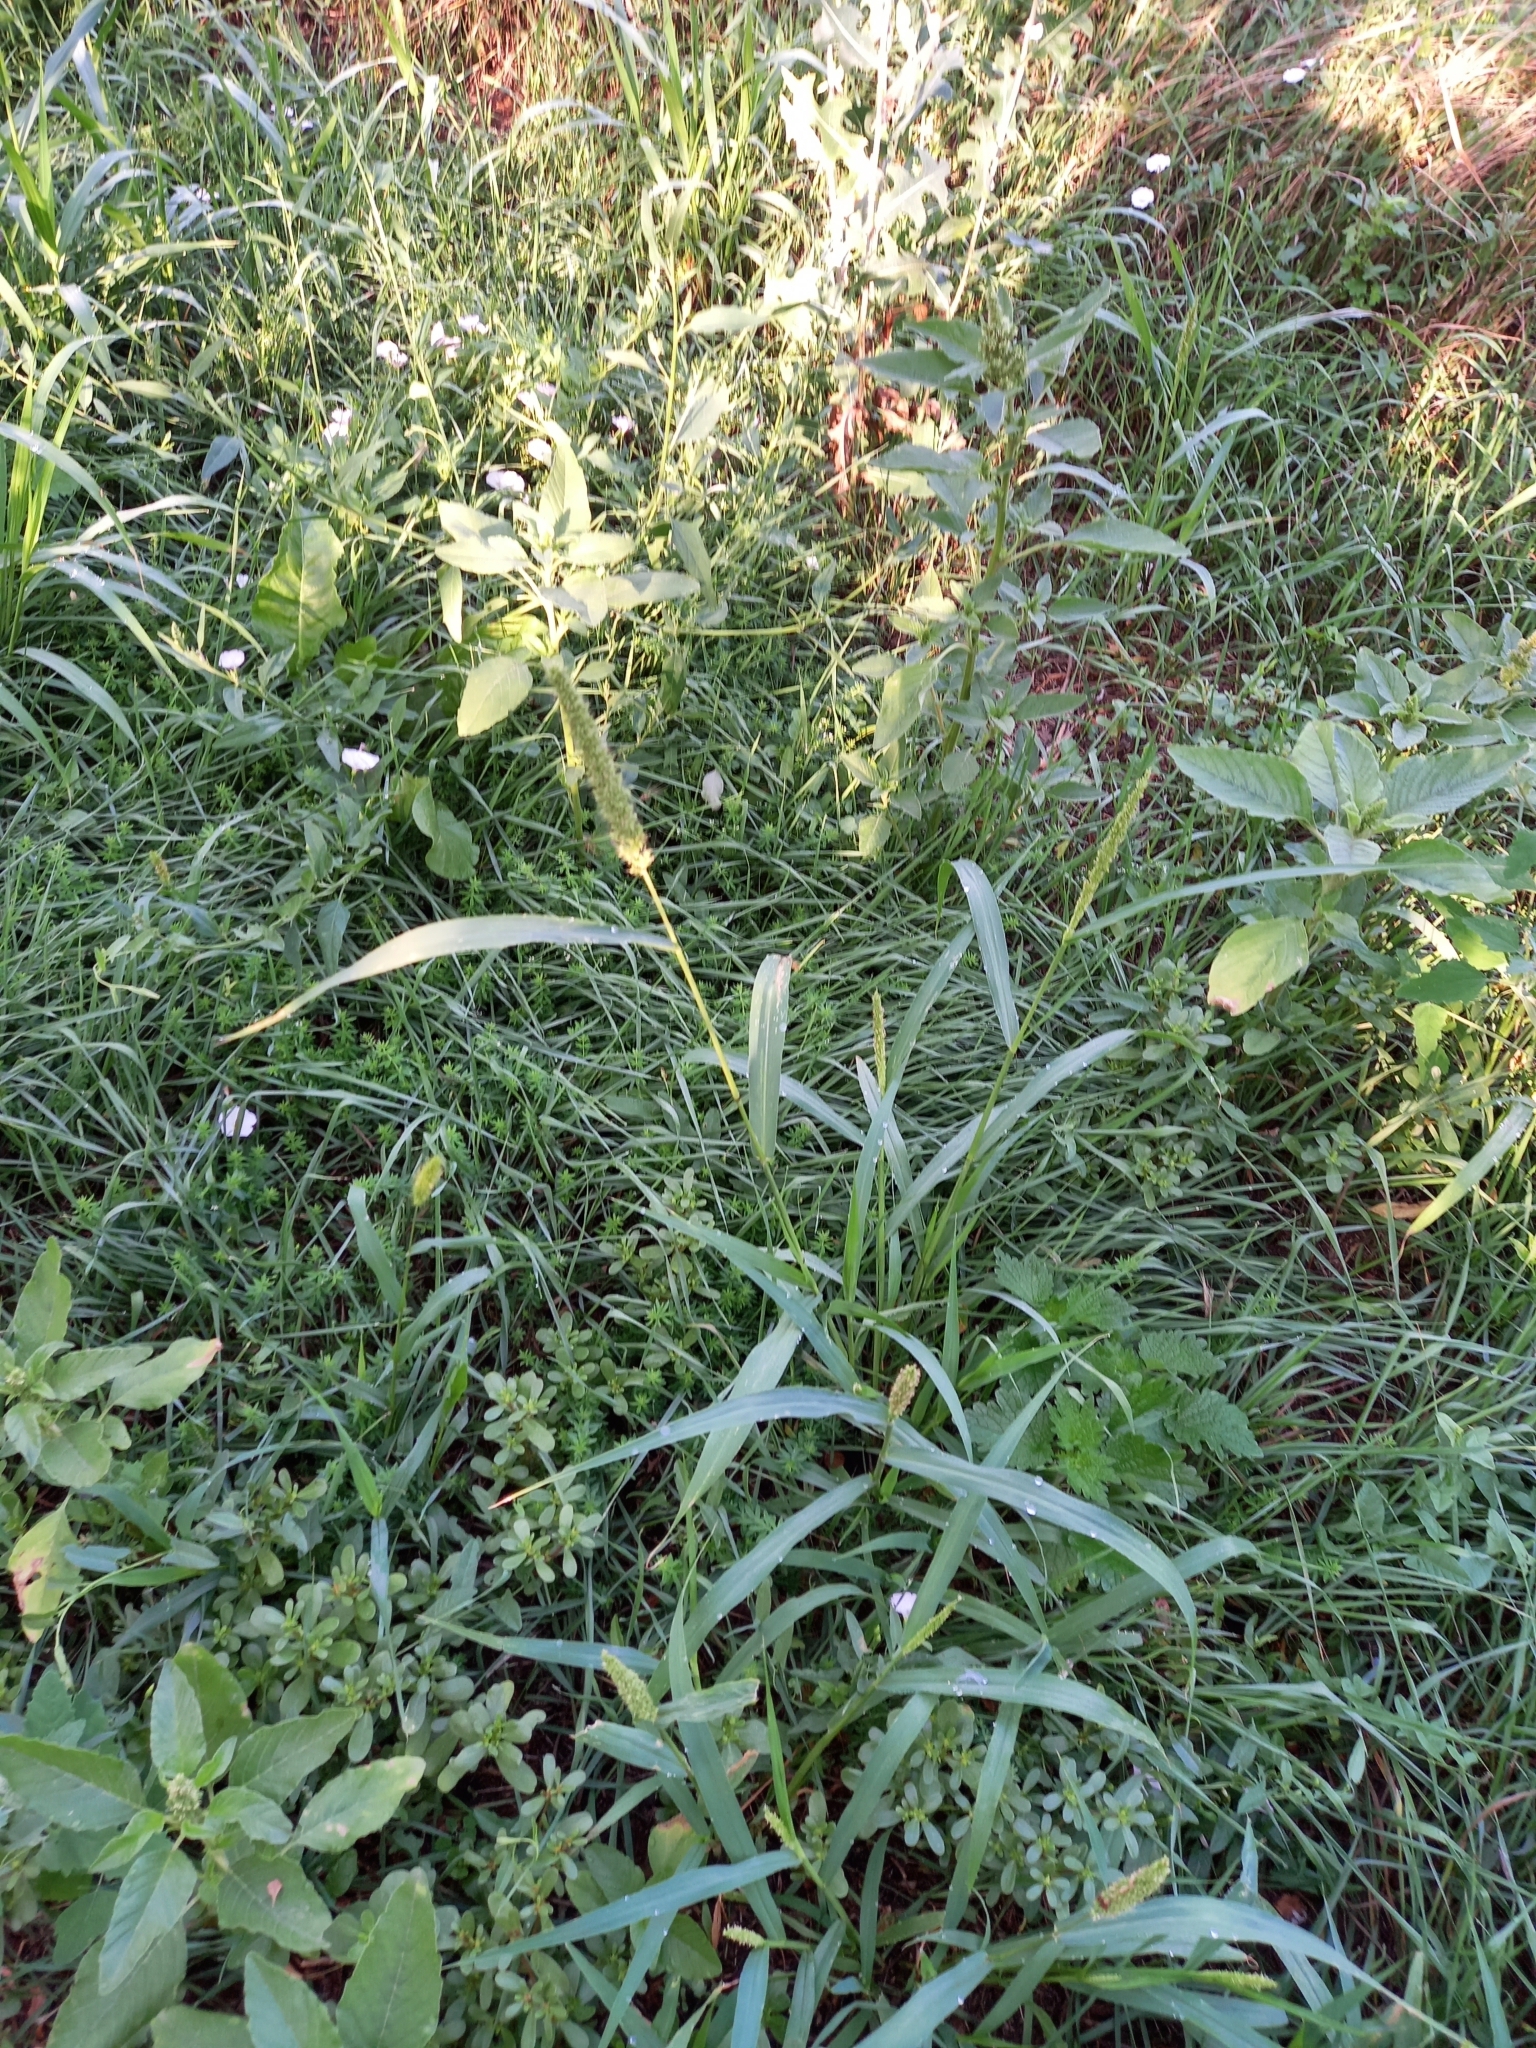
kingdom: Plantae
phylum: Tracheophyta
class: Liliopsida
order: Poales
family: Poaceae
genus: Setaria
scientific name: Setaria verticillata
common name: Hooked bristlegrass
